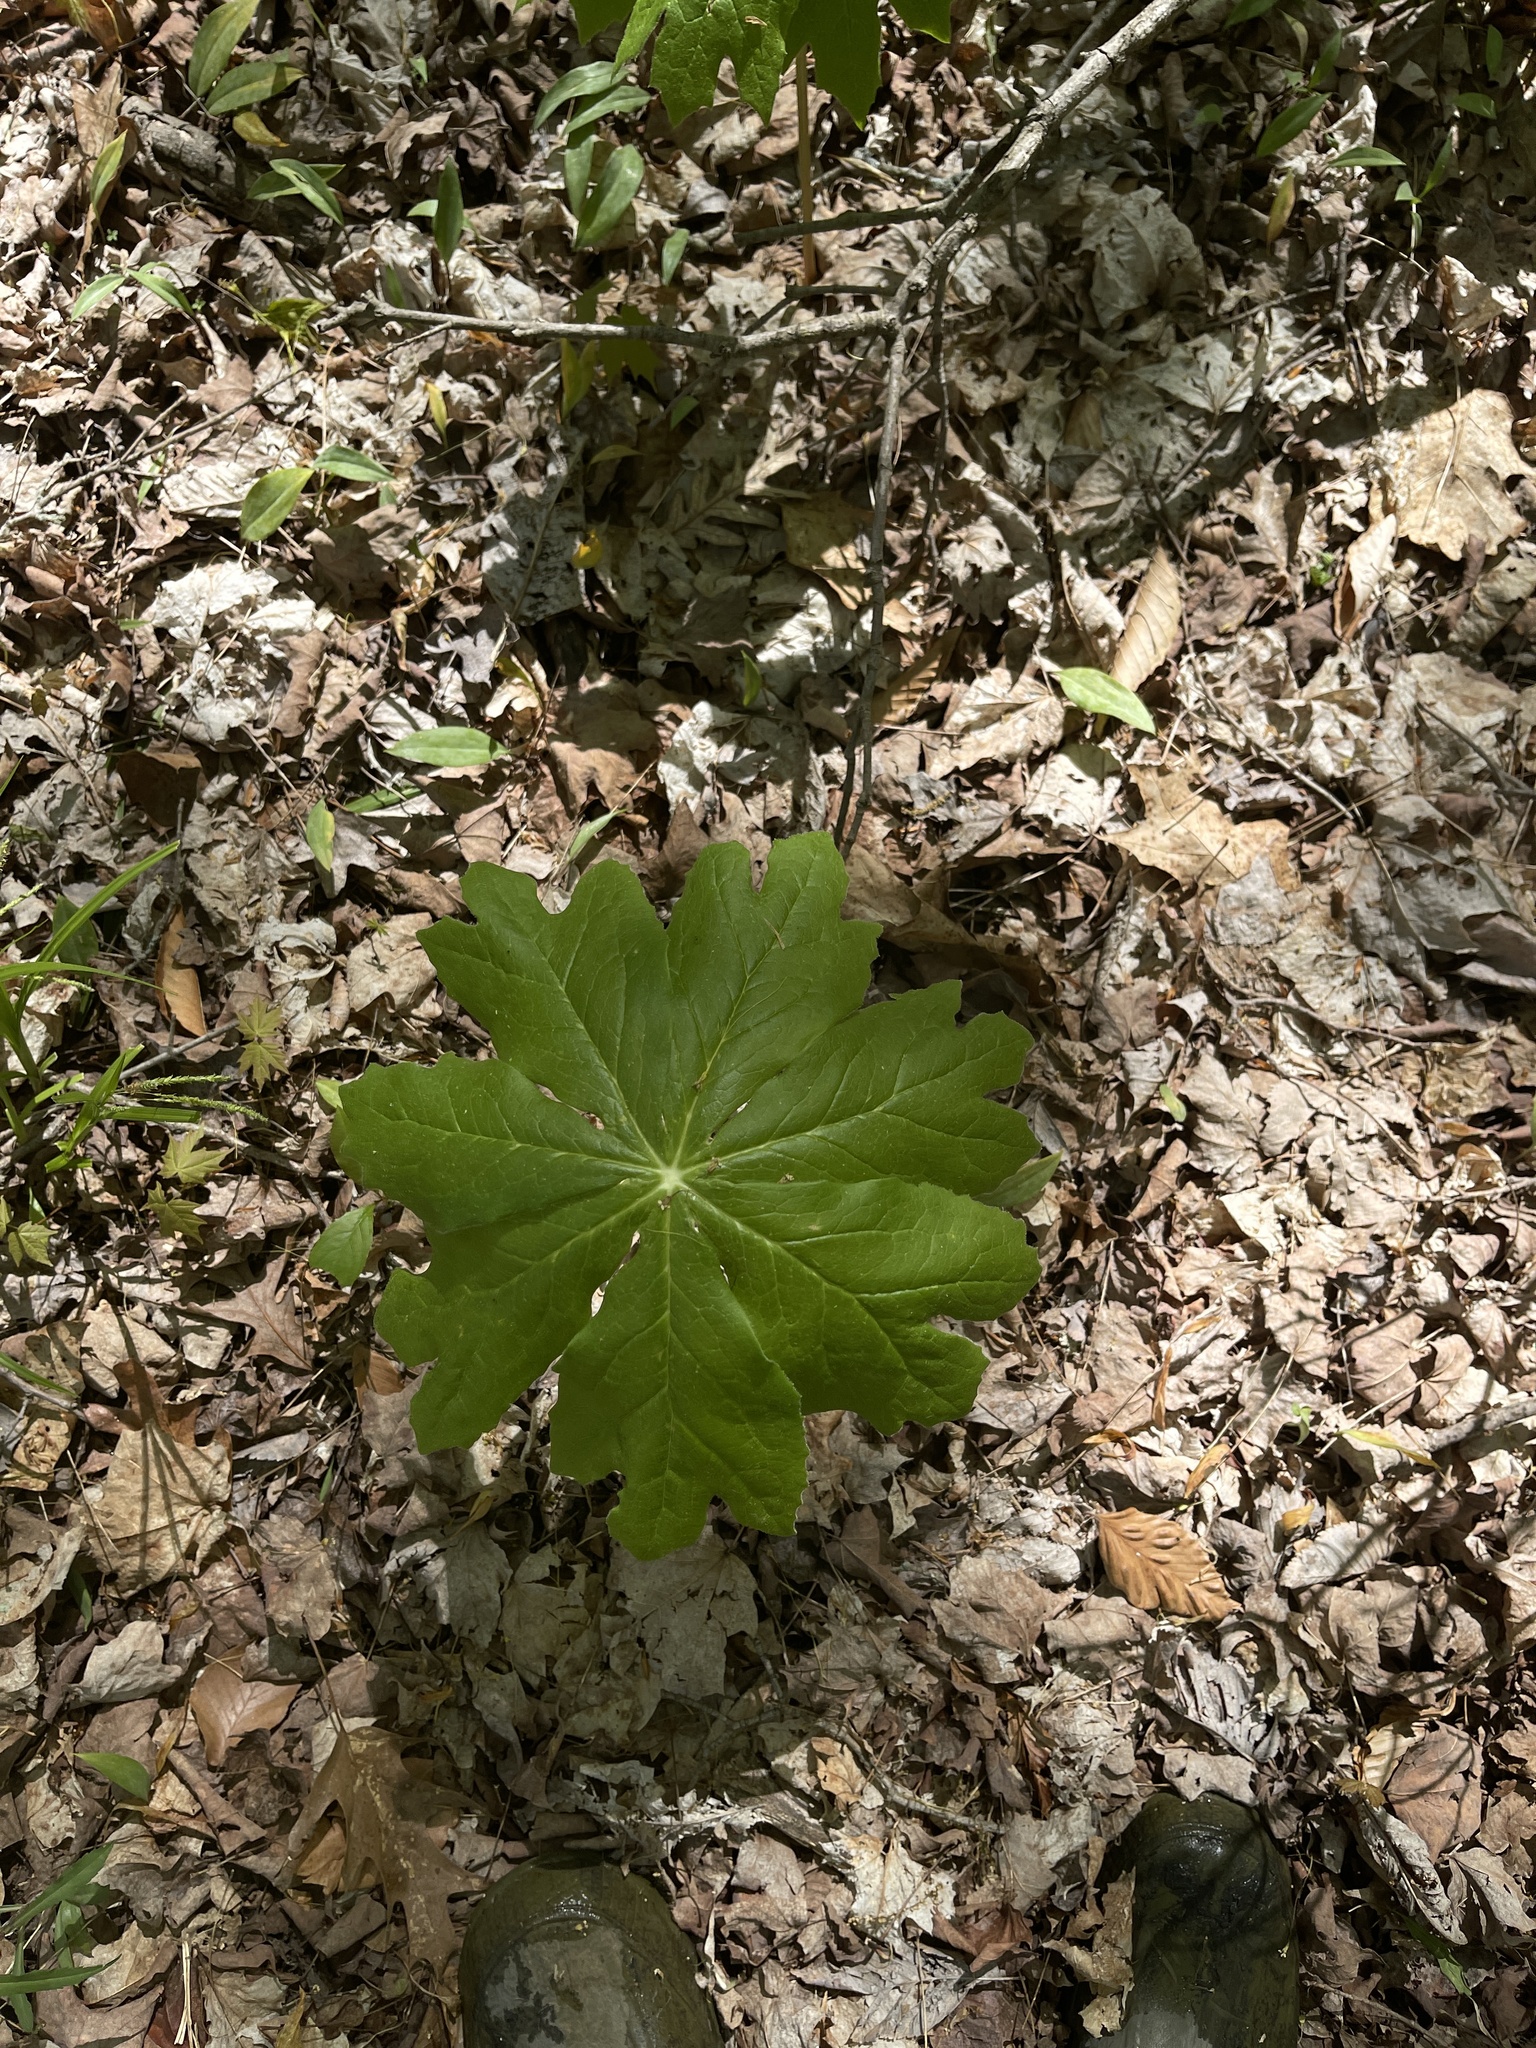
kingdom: Plantae
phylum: Tracheophyta
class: Magnoliopsida
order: Ranunculales
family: Berberidaceae
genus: Podophyllum
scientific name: Podophyllum peltatum
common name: Wild mandrake
